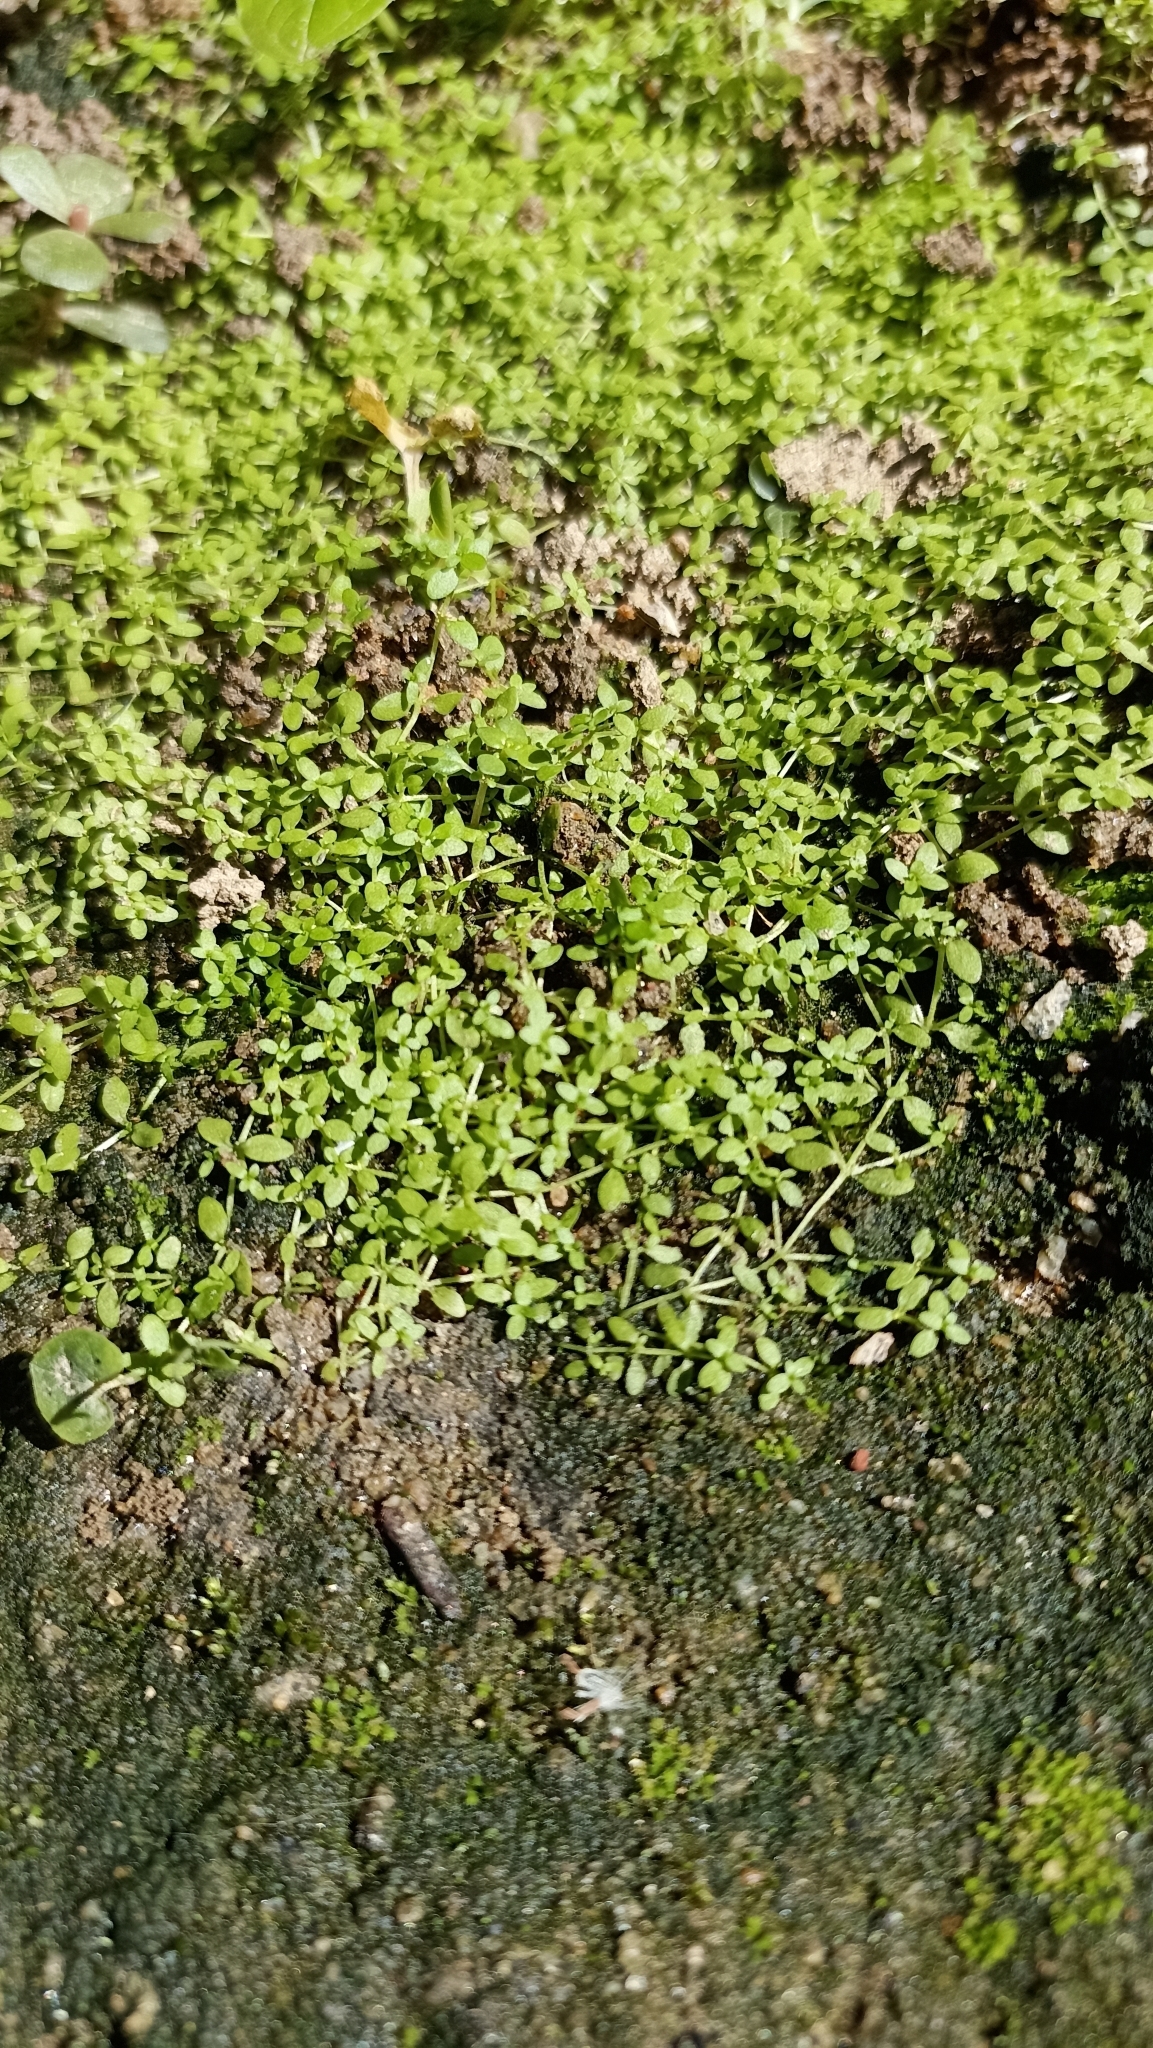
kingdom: Plantae
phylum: Tracheophyta
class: Magnoliopsida
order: Lamiales
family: Plantaginaceae
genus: Callitriche
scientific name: Callitriche deflexa
